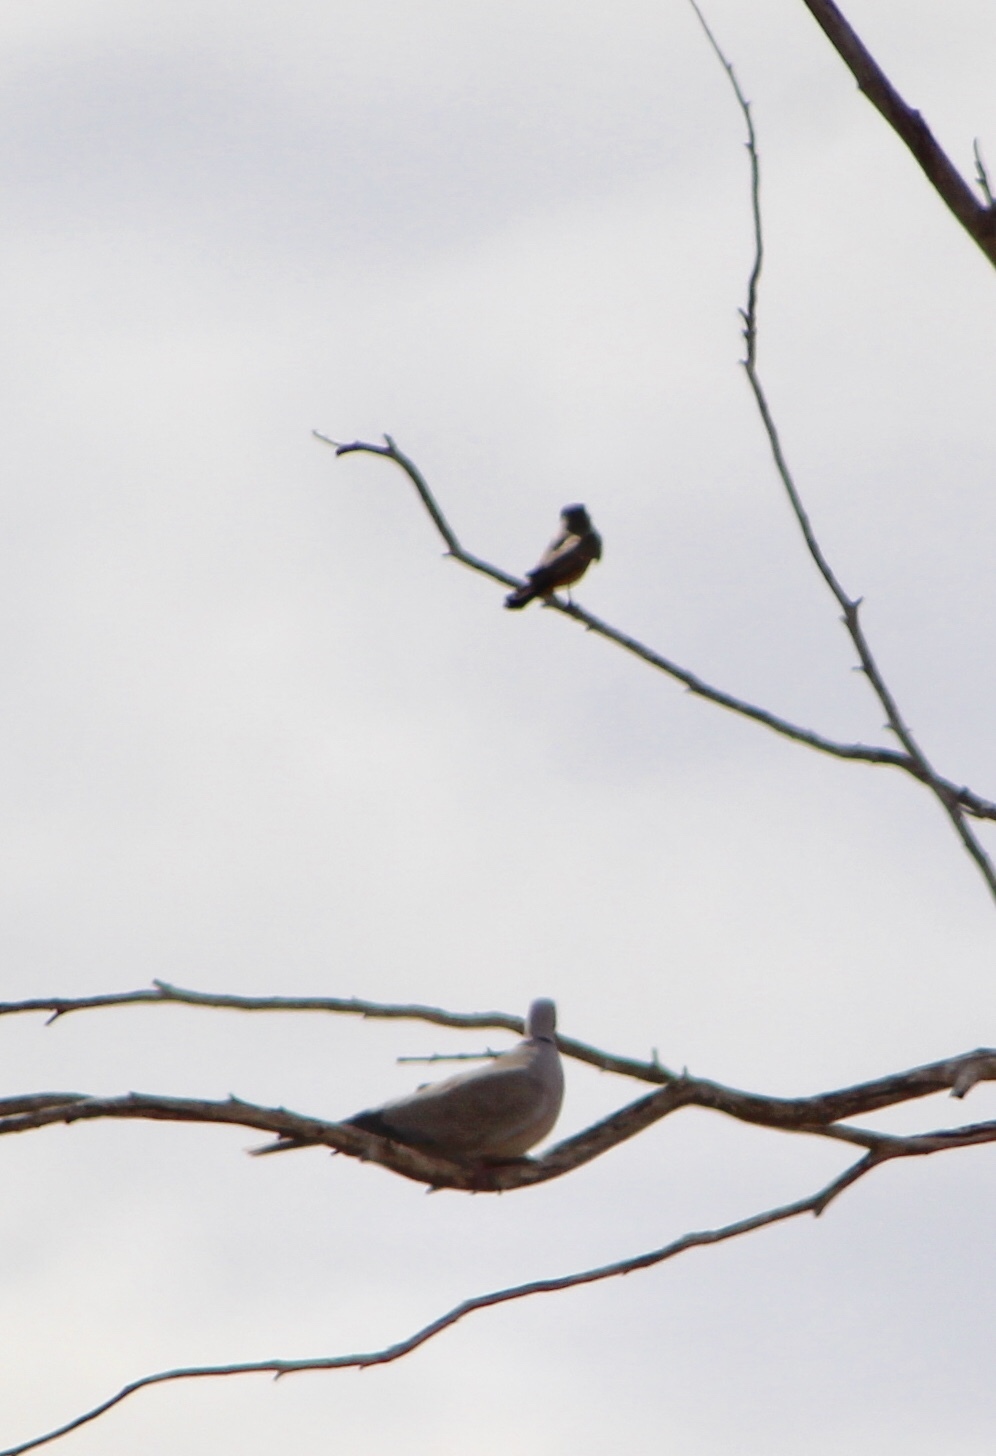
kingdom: Animalia
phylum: Chordata
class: Aves
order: Passeriformes
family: Tyrannidae
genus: Sayornis
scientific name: Sayornis saya
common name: Say's phoebe
